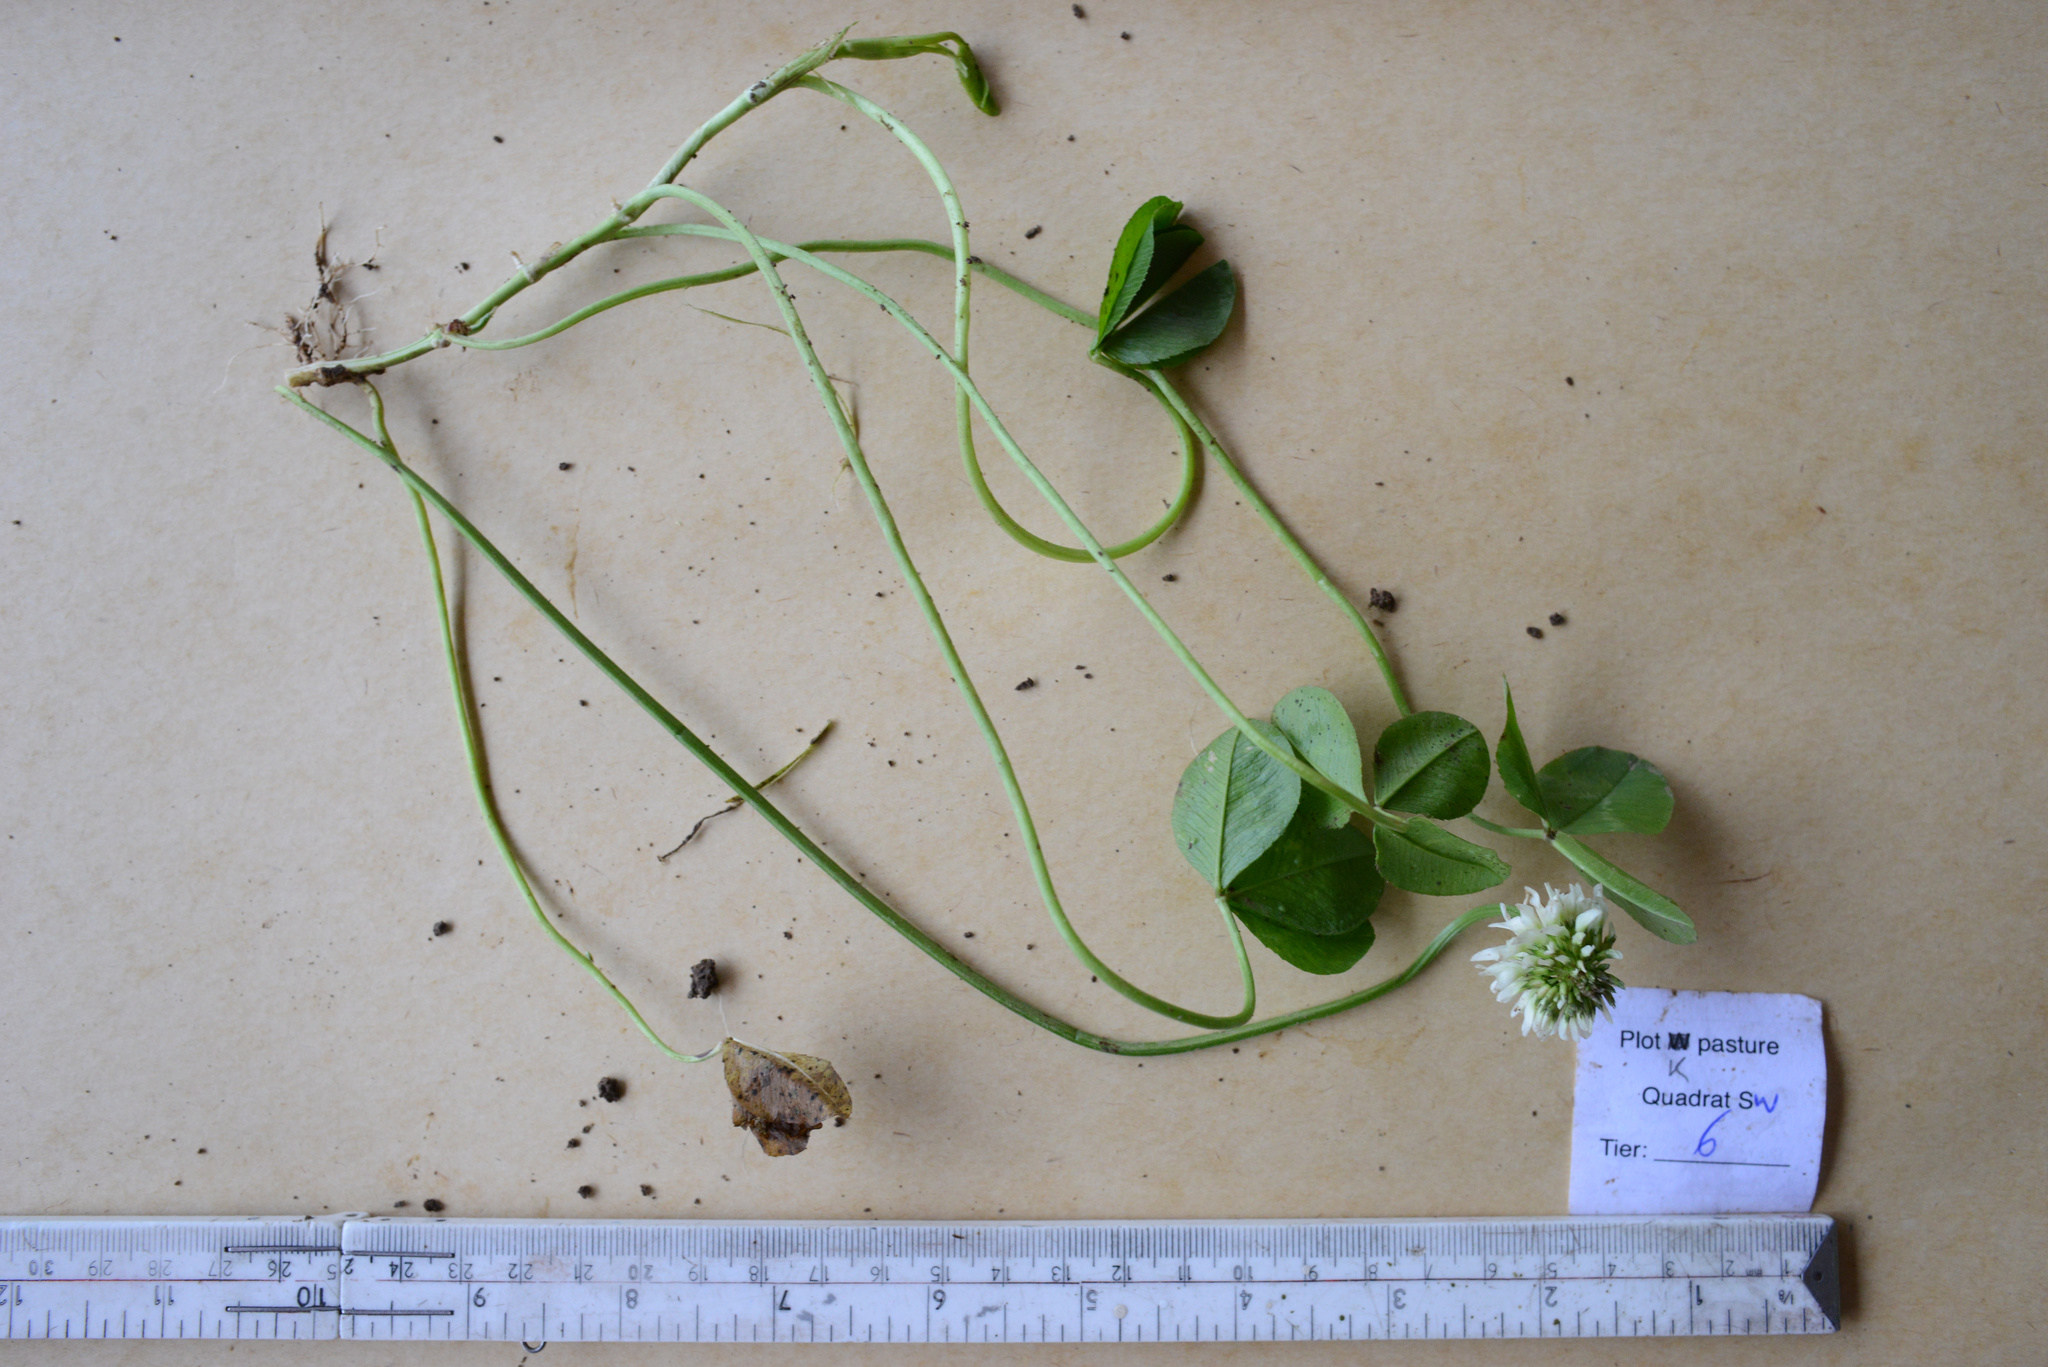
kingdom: Plantae
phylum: Tracheophyta
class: Magnoliopsida
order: Fabales
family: Fabaceae
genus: Trifolium
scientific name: Trifolium repens
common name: White clover
